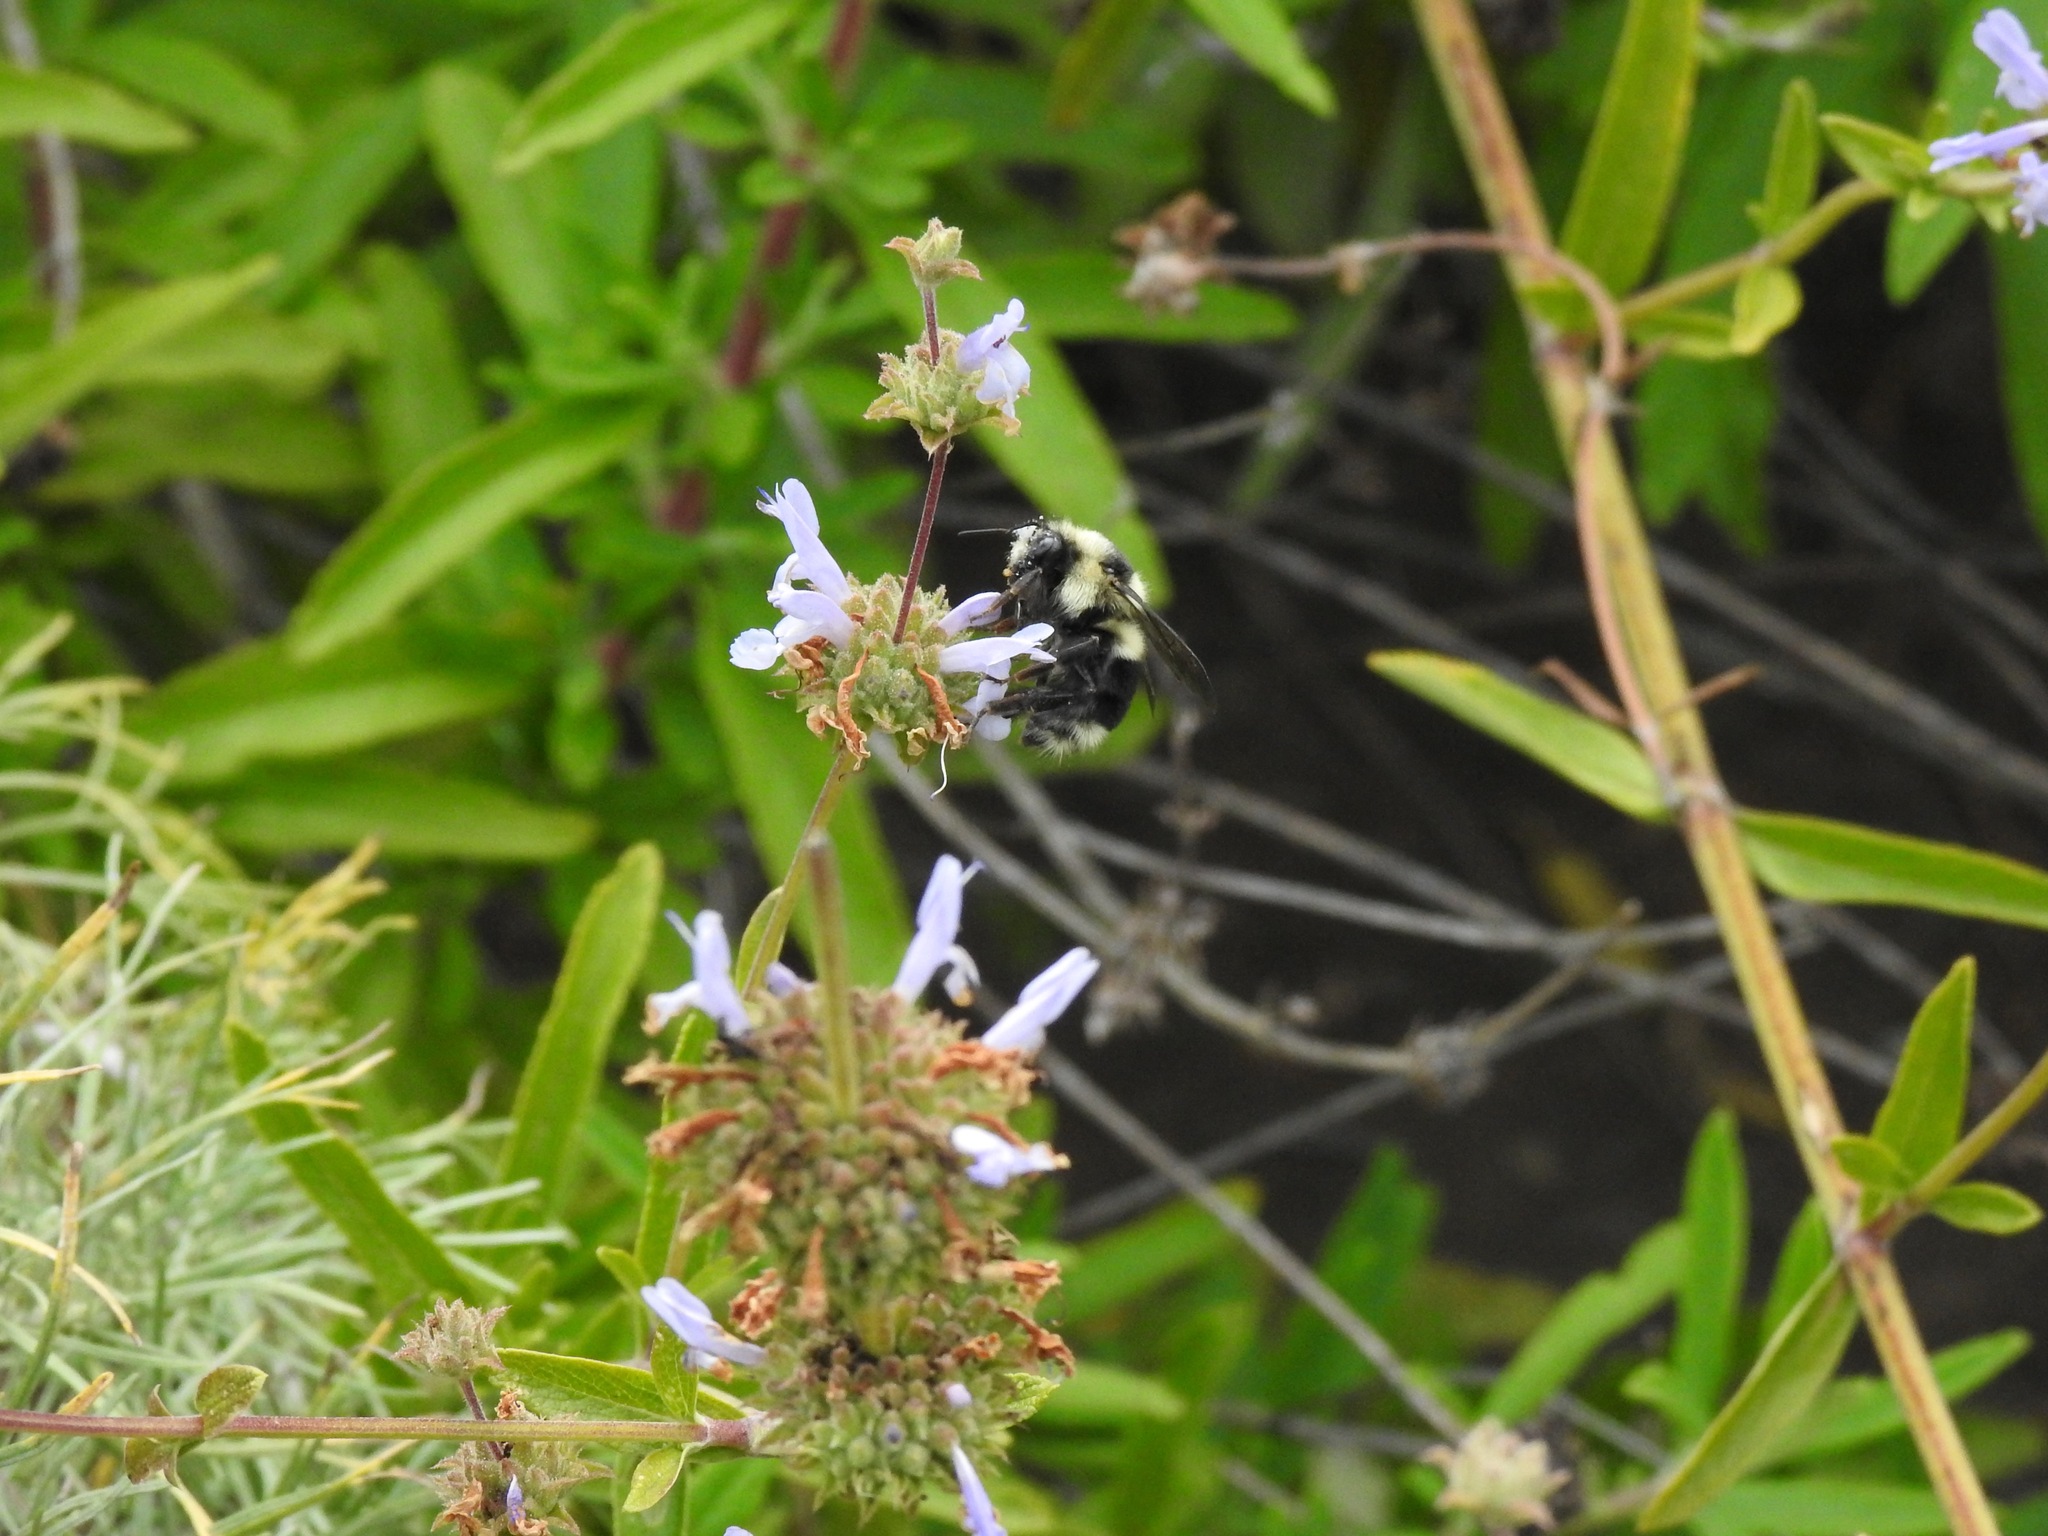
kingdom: Animalia
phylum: Arthropoda
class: Insecta
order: Hymenoptera
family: Apidae
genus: Bombus
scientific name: Bombus melanopygus
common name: Black tail bumble bee
